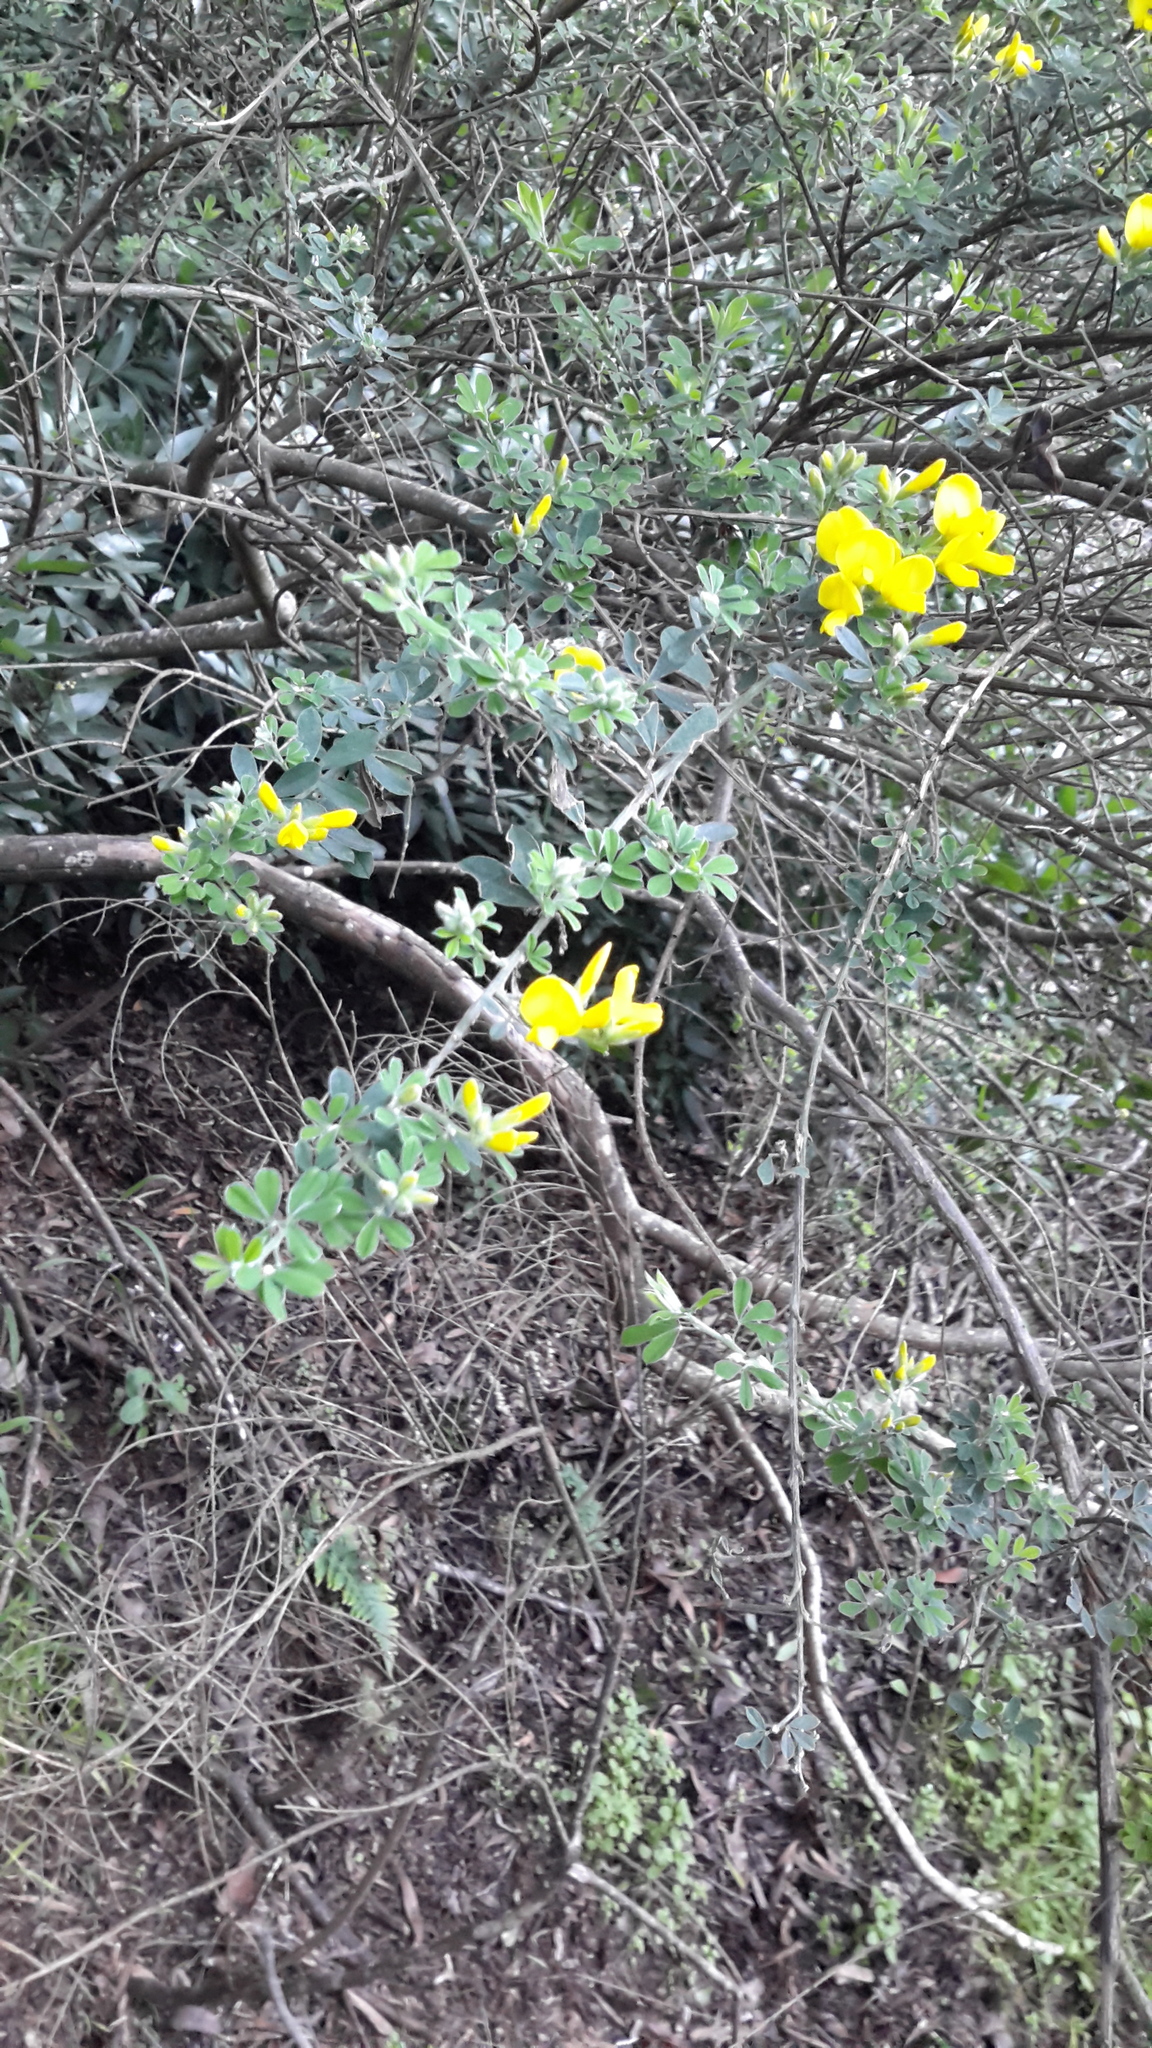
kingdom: Plantae
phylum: Tracheophyta
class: Magnoliopsida
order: Fabales
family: Fabaceae
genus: Genista
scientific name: Genista monspessulana
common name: Montpellier broom
